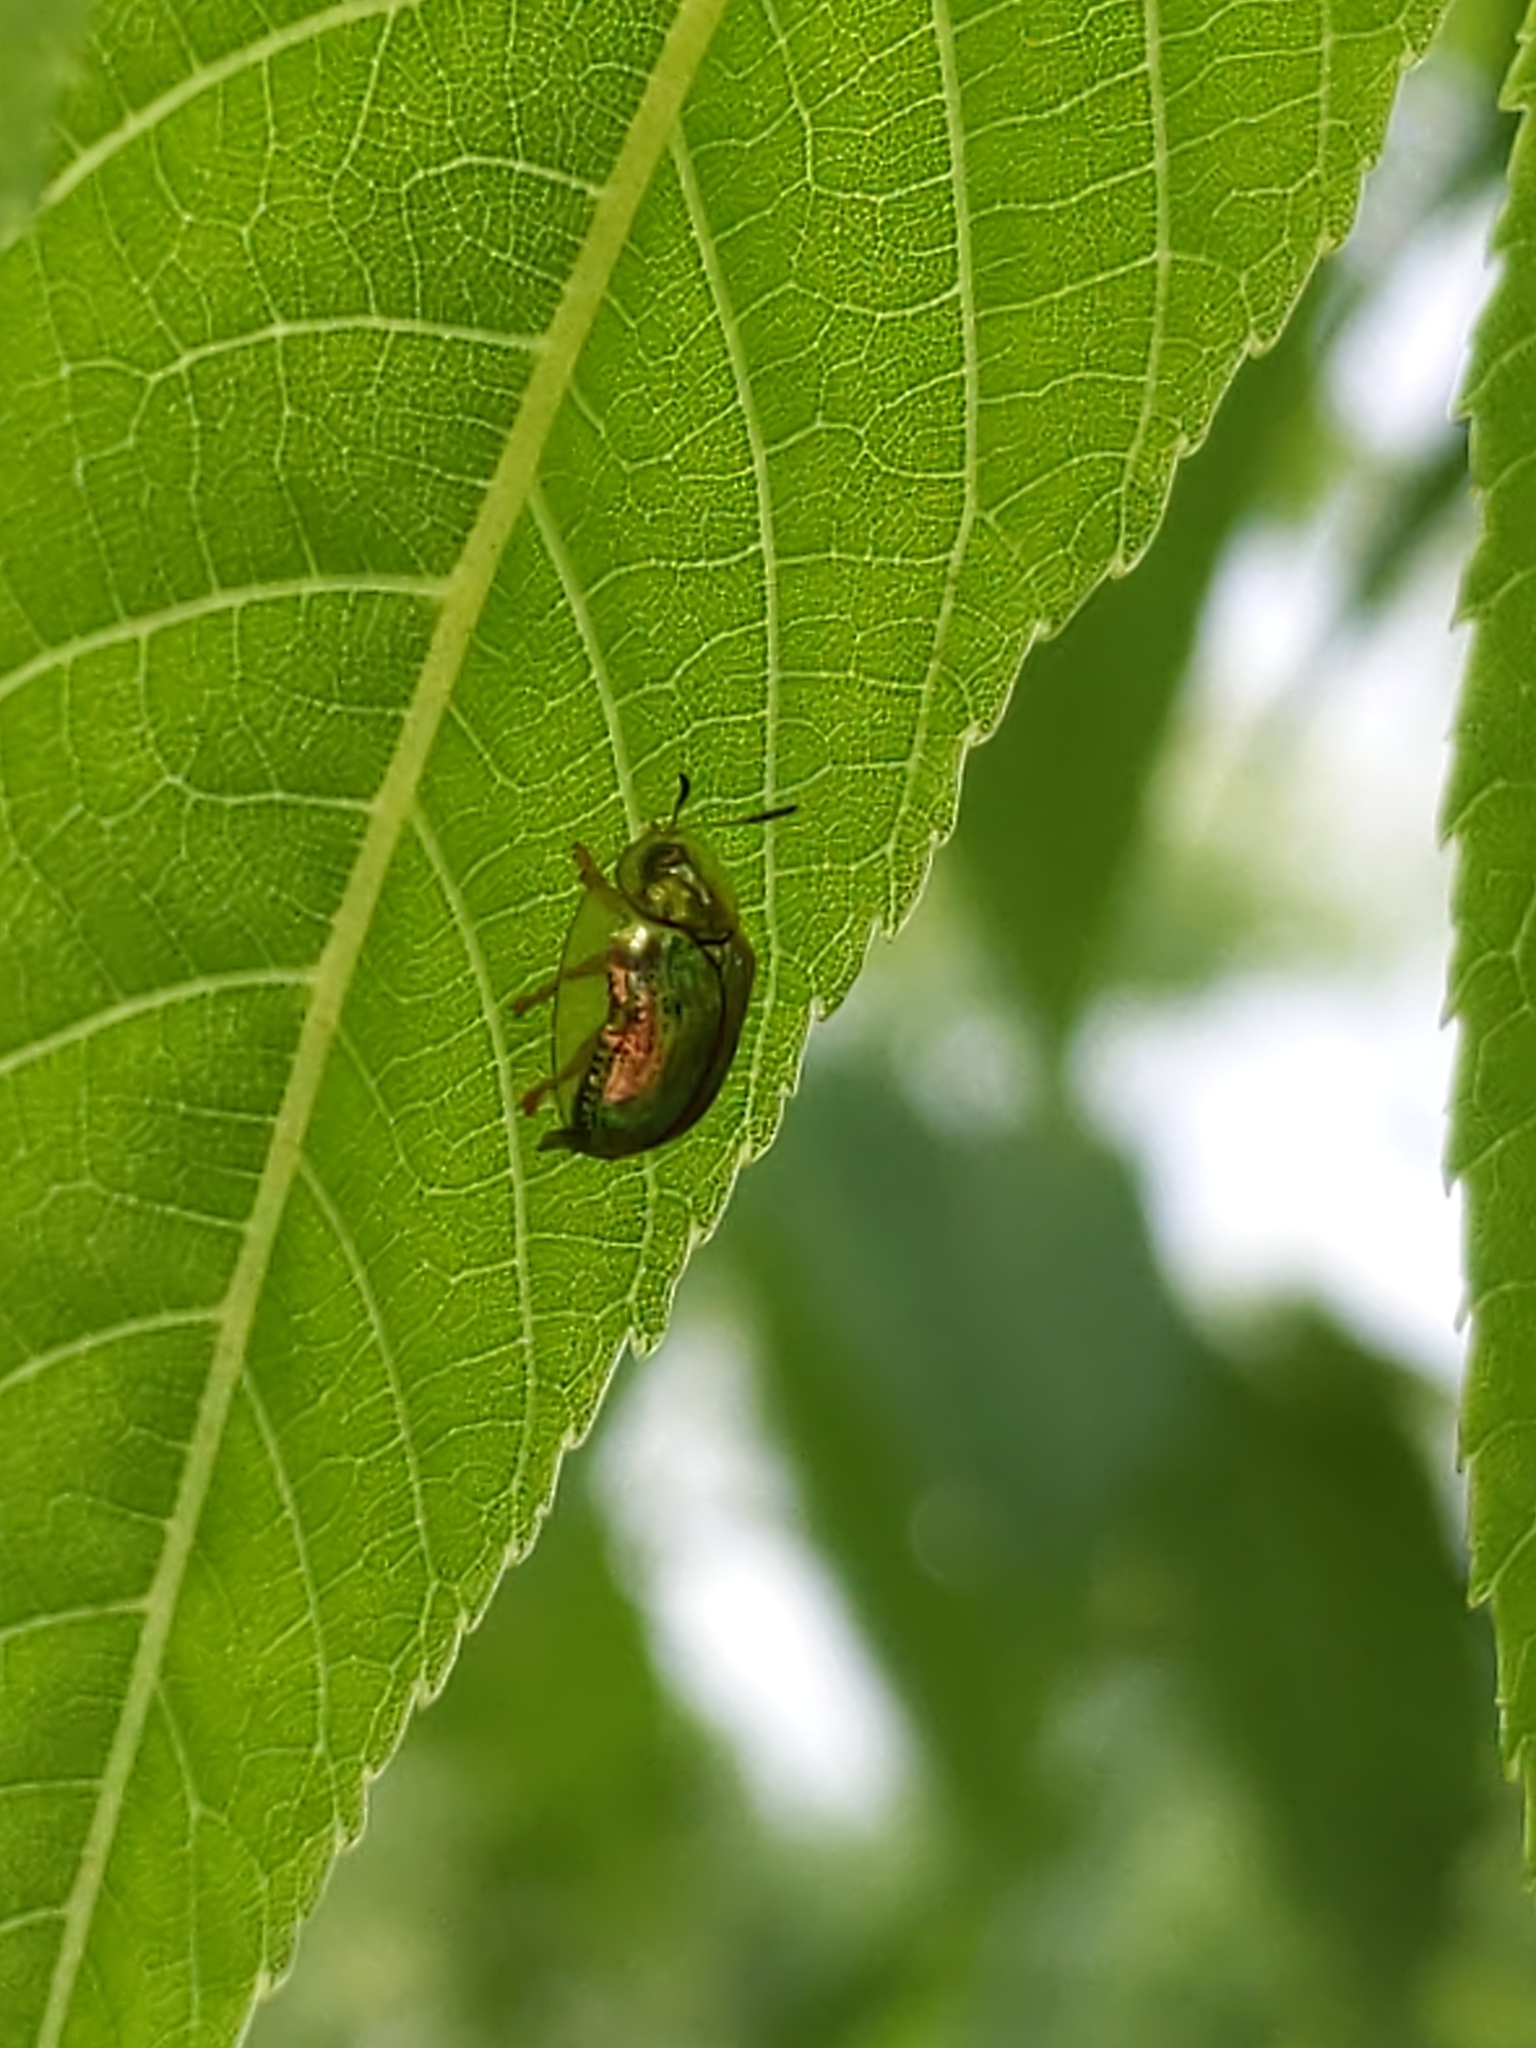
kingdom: Animalia
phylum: Arthropoda
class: Insecta
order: Coleoptera
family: Chrysomelidae
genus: Charidotella
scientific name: Charidotella sexpunctata
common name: Golden tortoise beetle
